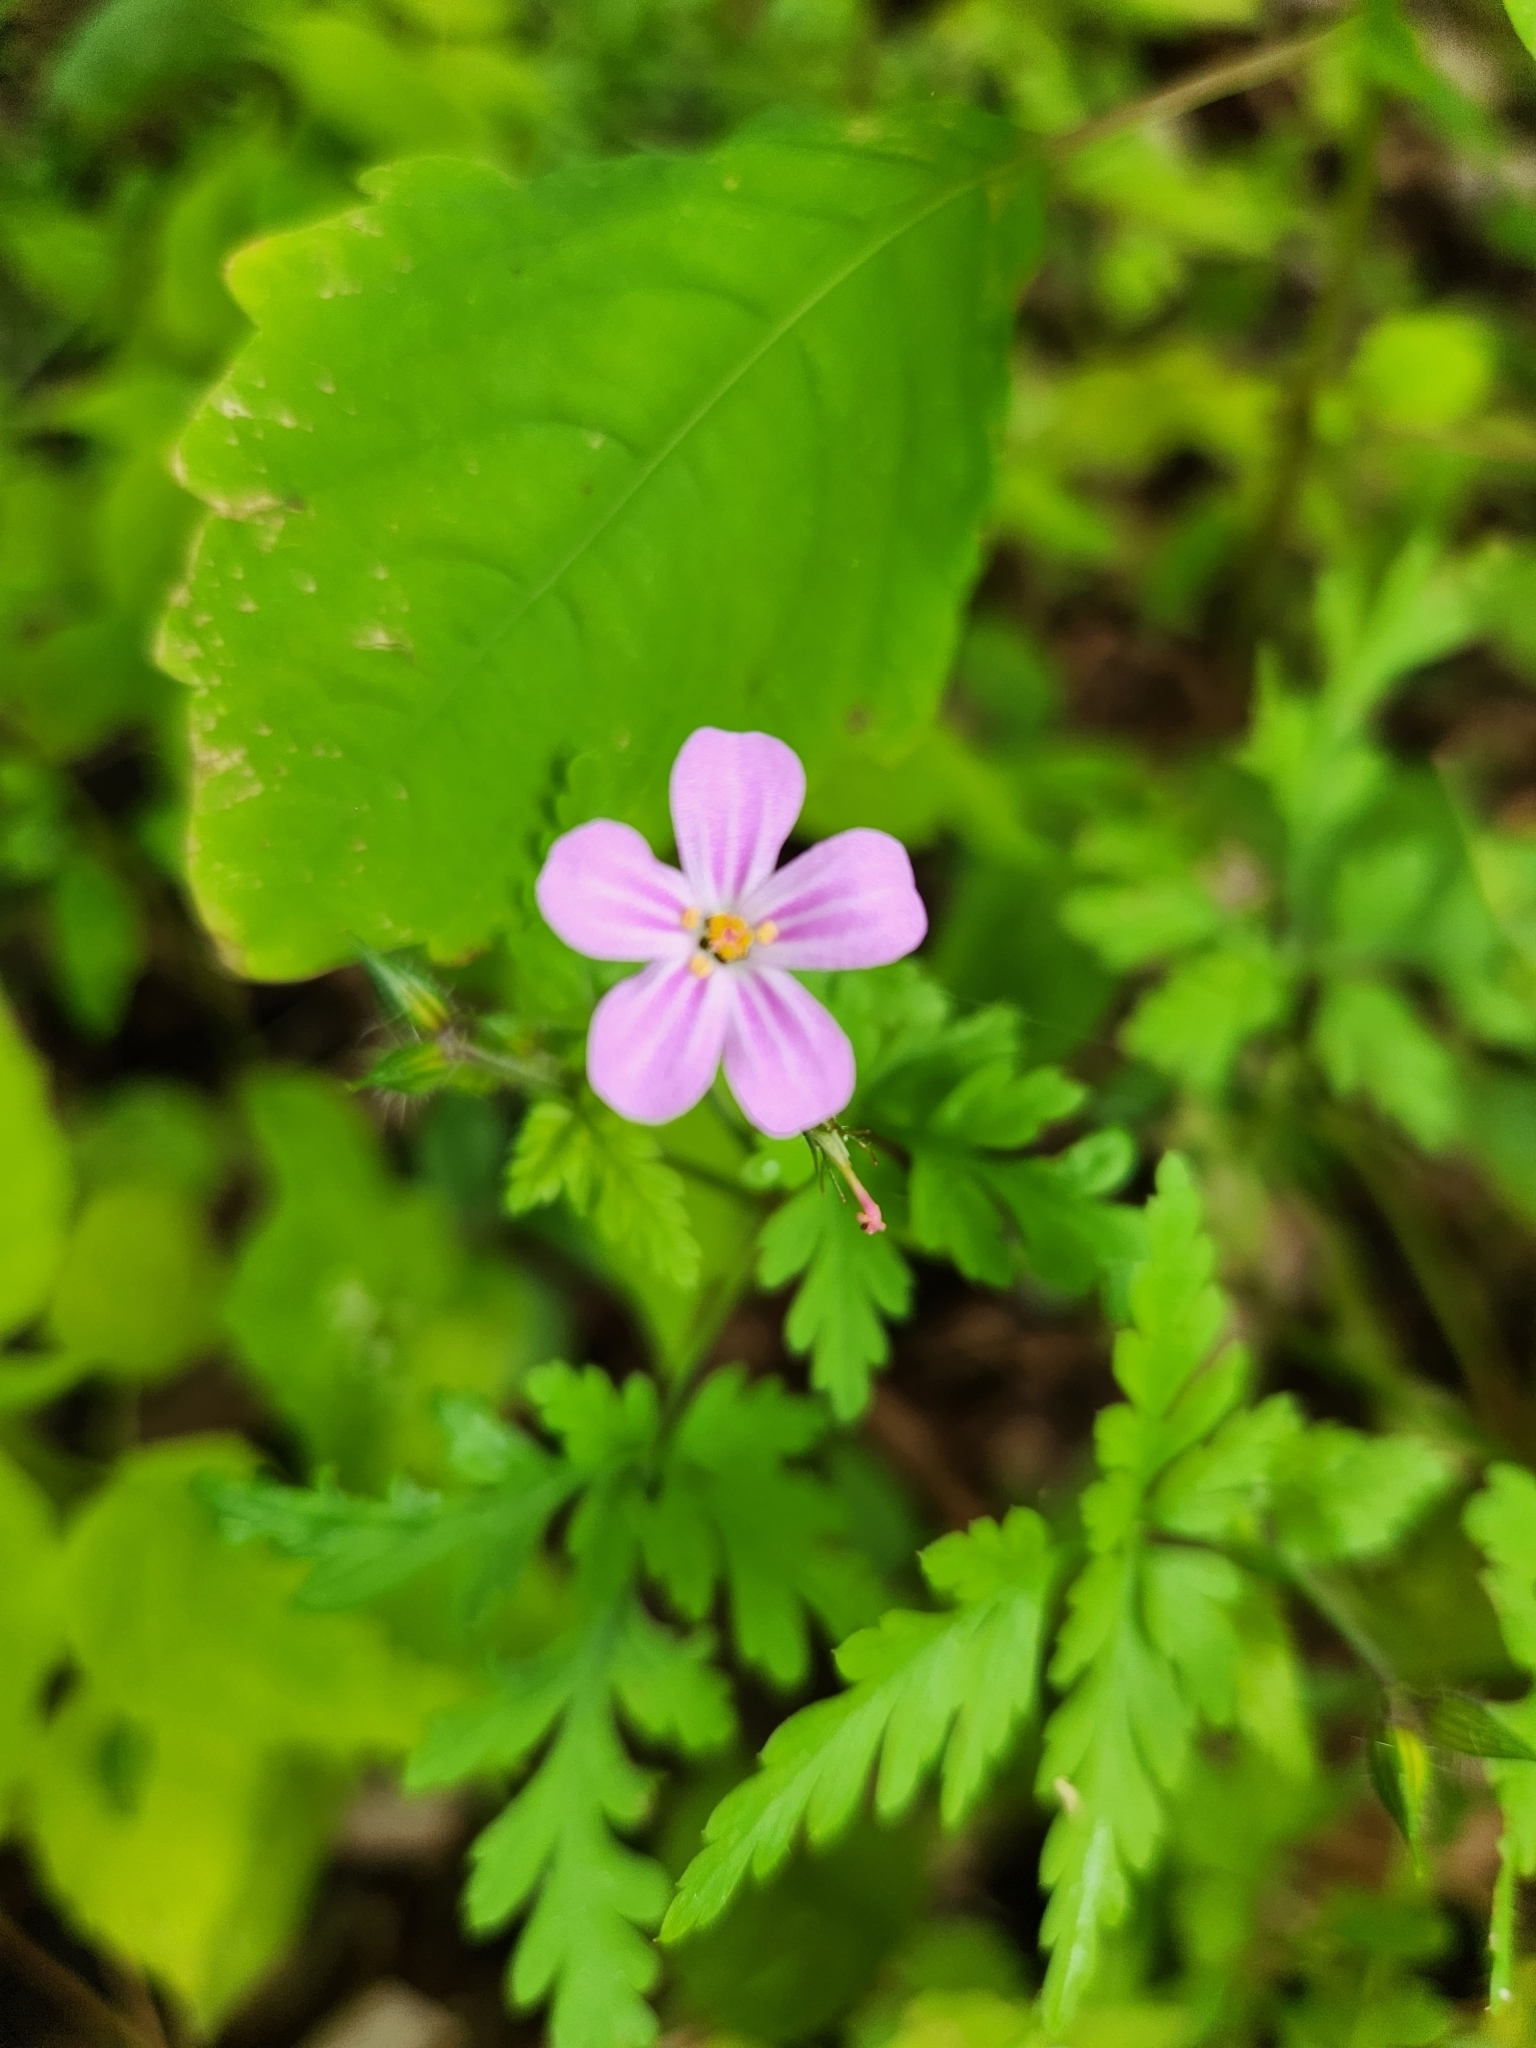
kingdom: Plantae
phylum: Tracheophyta
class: Magnoliopsida
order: Geraniales
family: Geraniaceae
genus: Geranium
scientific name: Geranium robertianum
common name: Herb-robert
